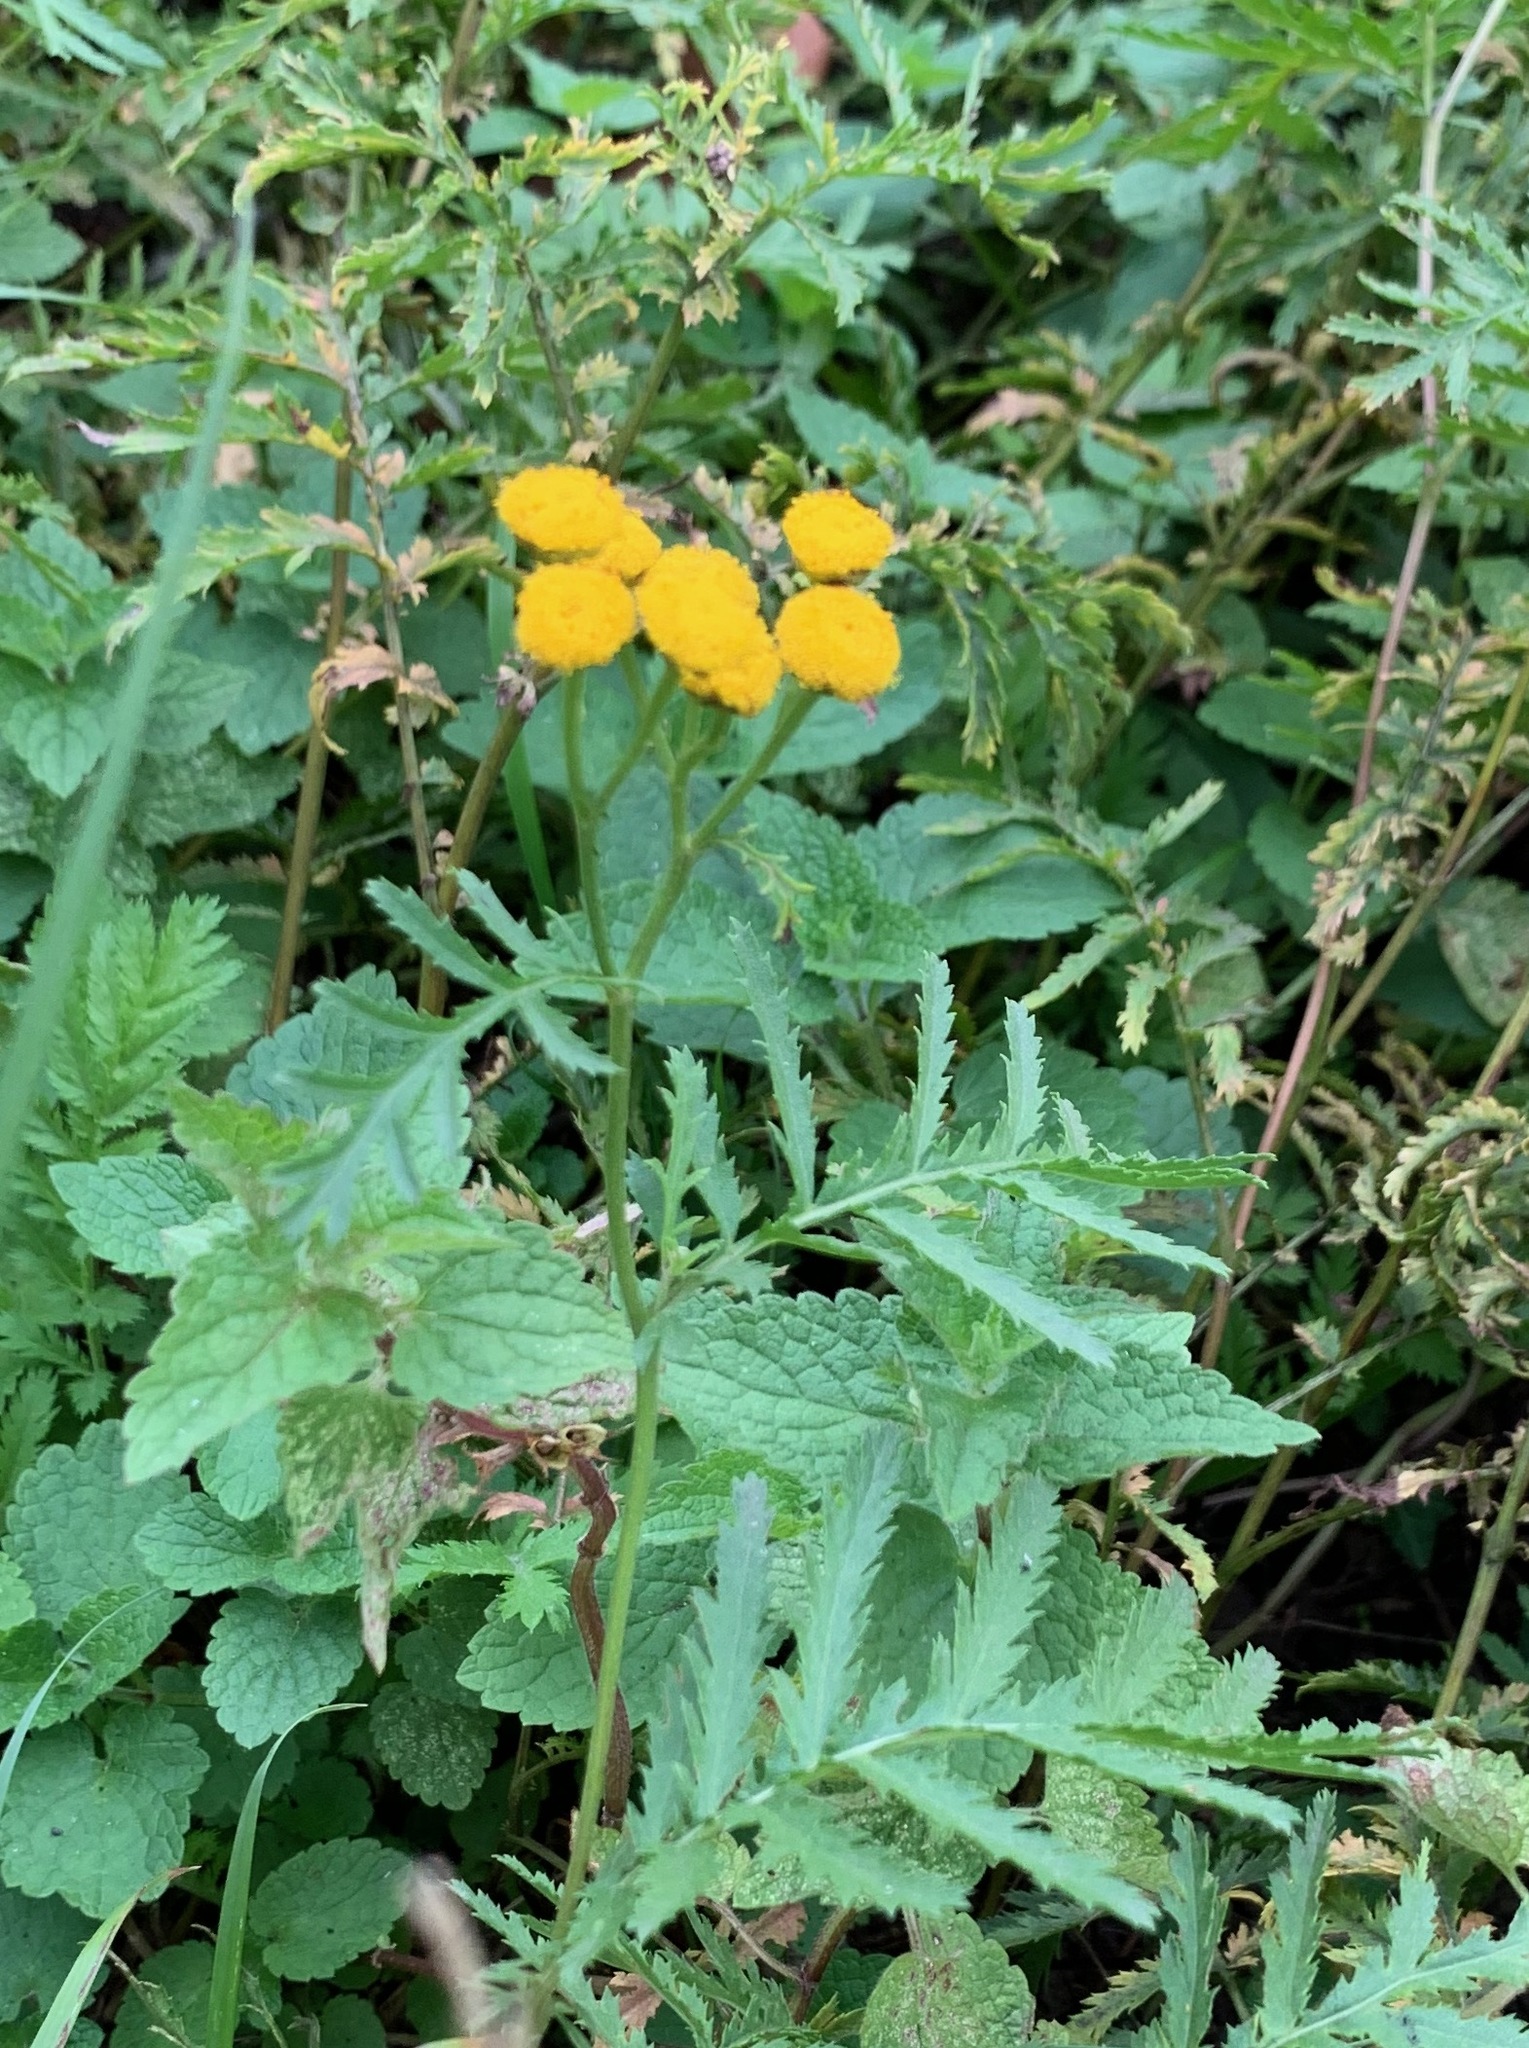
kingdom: Plantae
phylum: Tracheophyta
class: Magnoliopsida
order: Asterales
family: Asteraceae
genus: Tanacetum
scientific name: Tanacetum vulgare
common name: Common tansy
